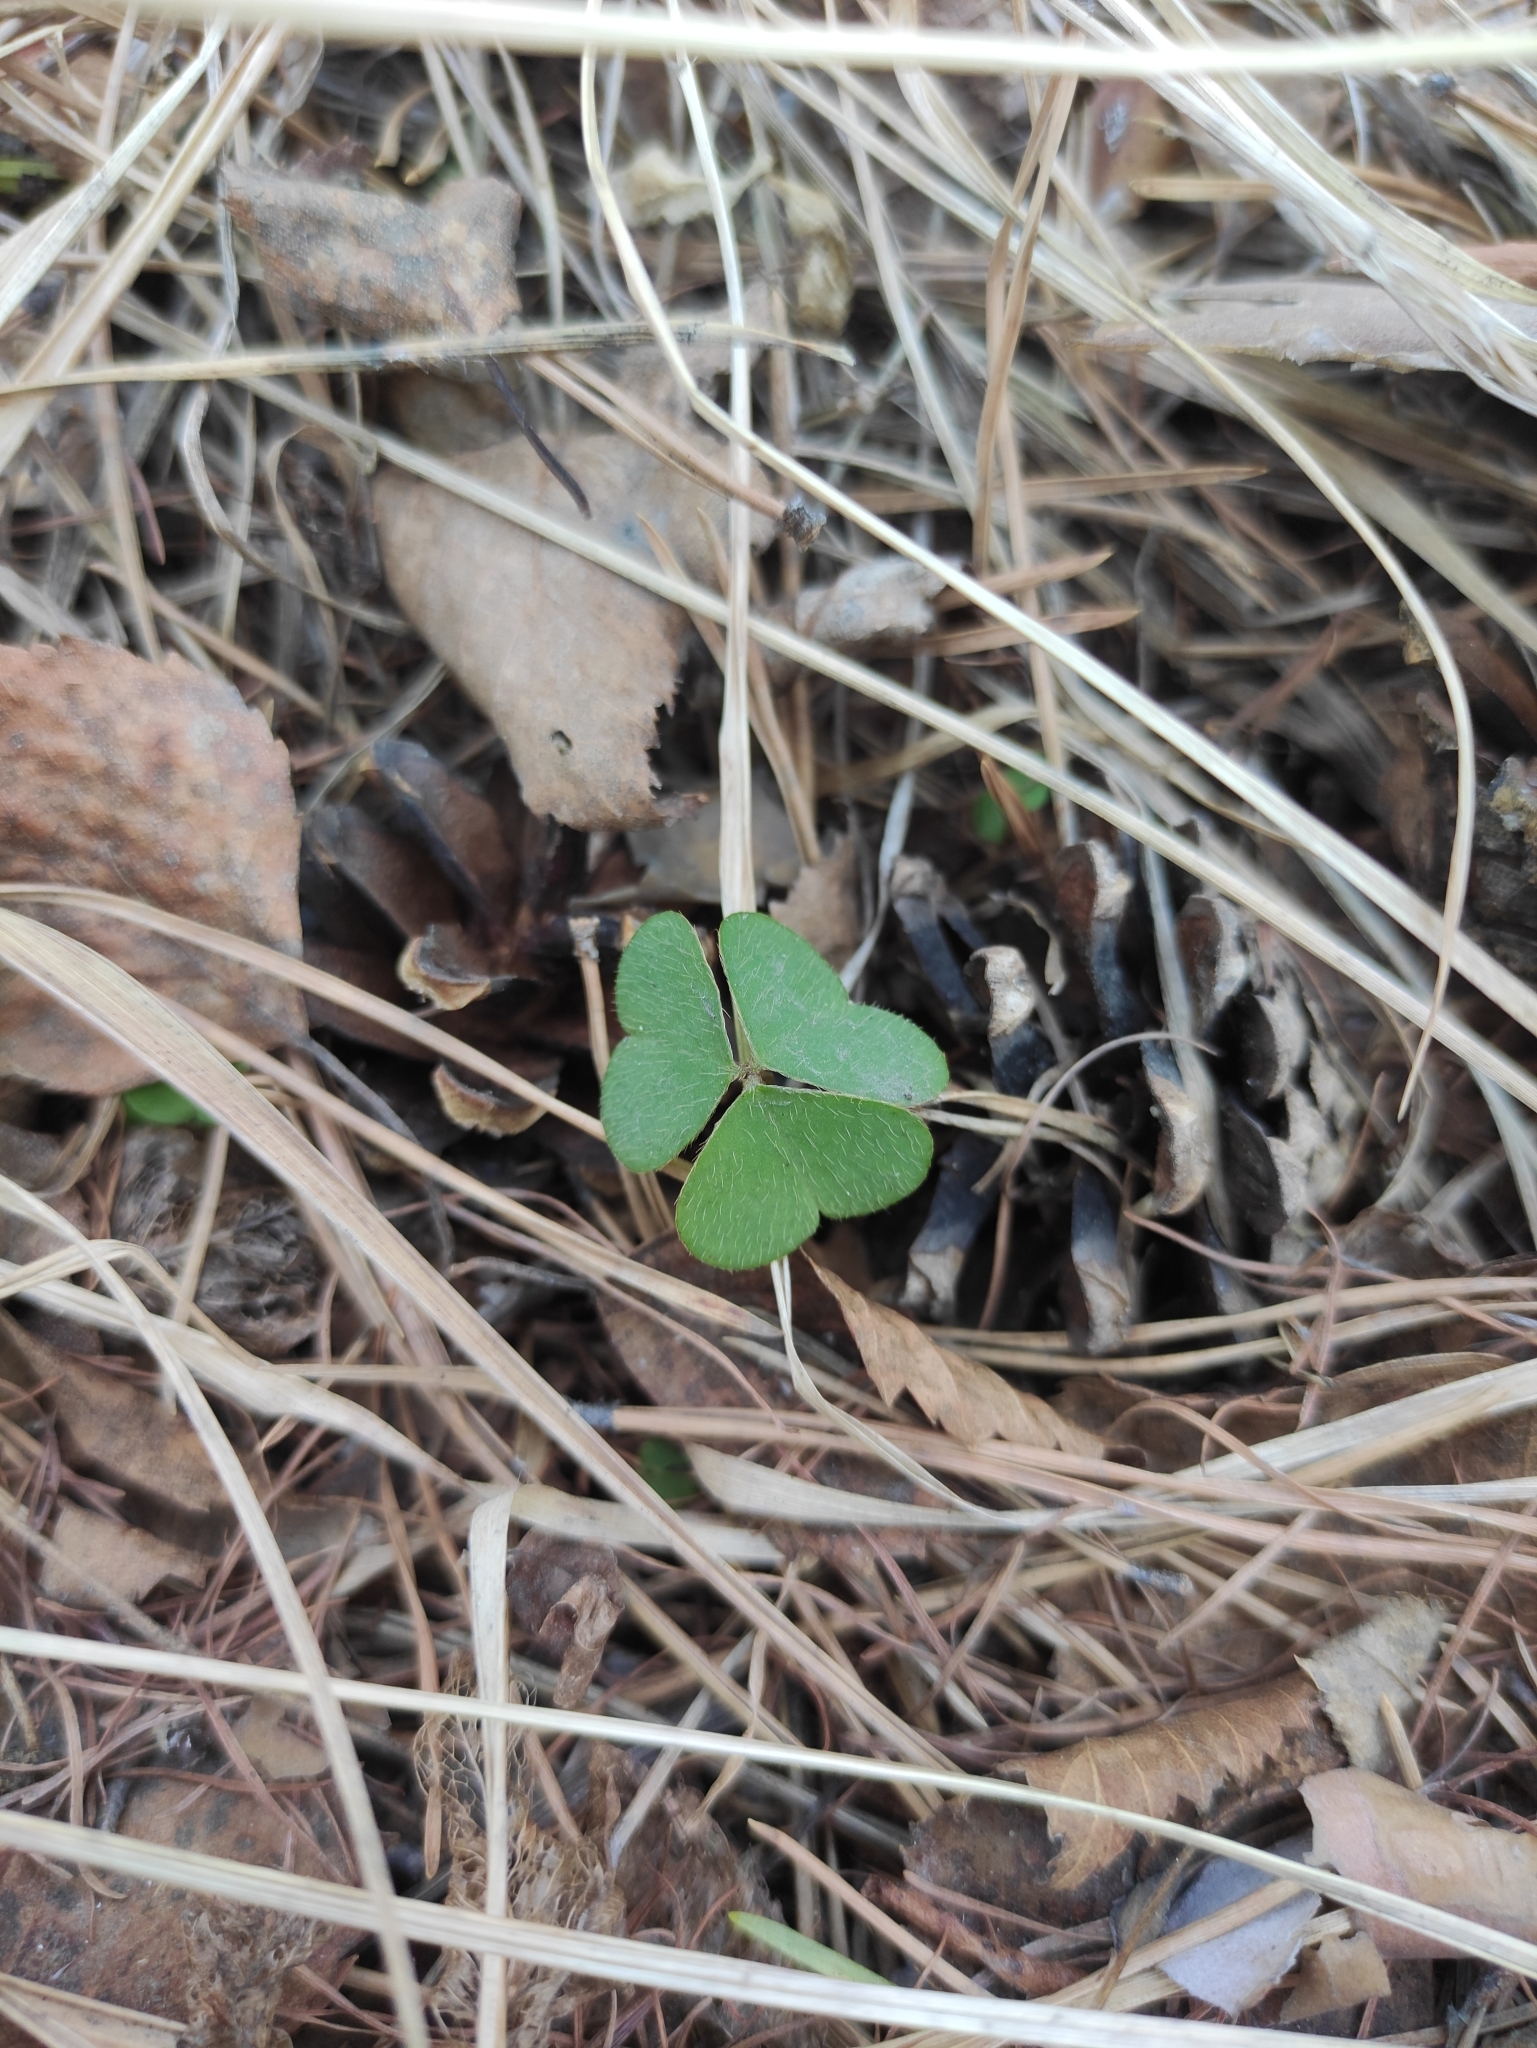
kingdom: Plantae
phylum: Tracheophyta
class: Magnoliopsida
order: Oxalidales
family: Oxalidaceae
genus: Oxalis
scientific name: Oxalis acetosella
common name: Wood-sorrel
